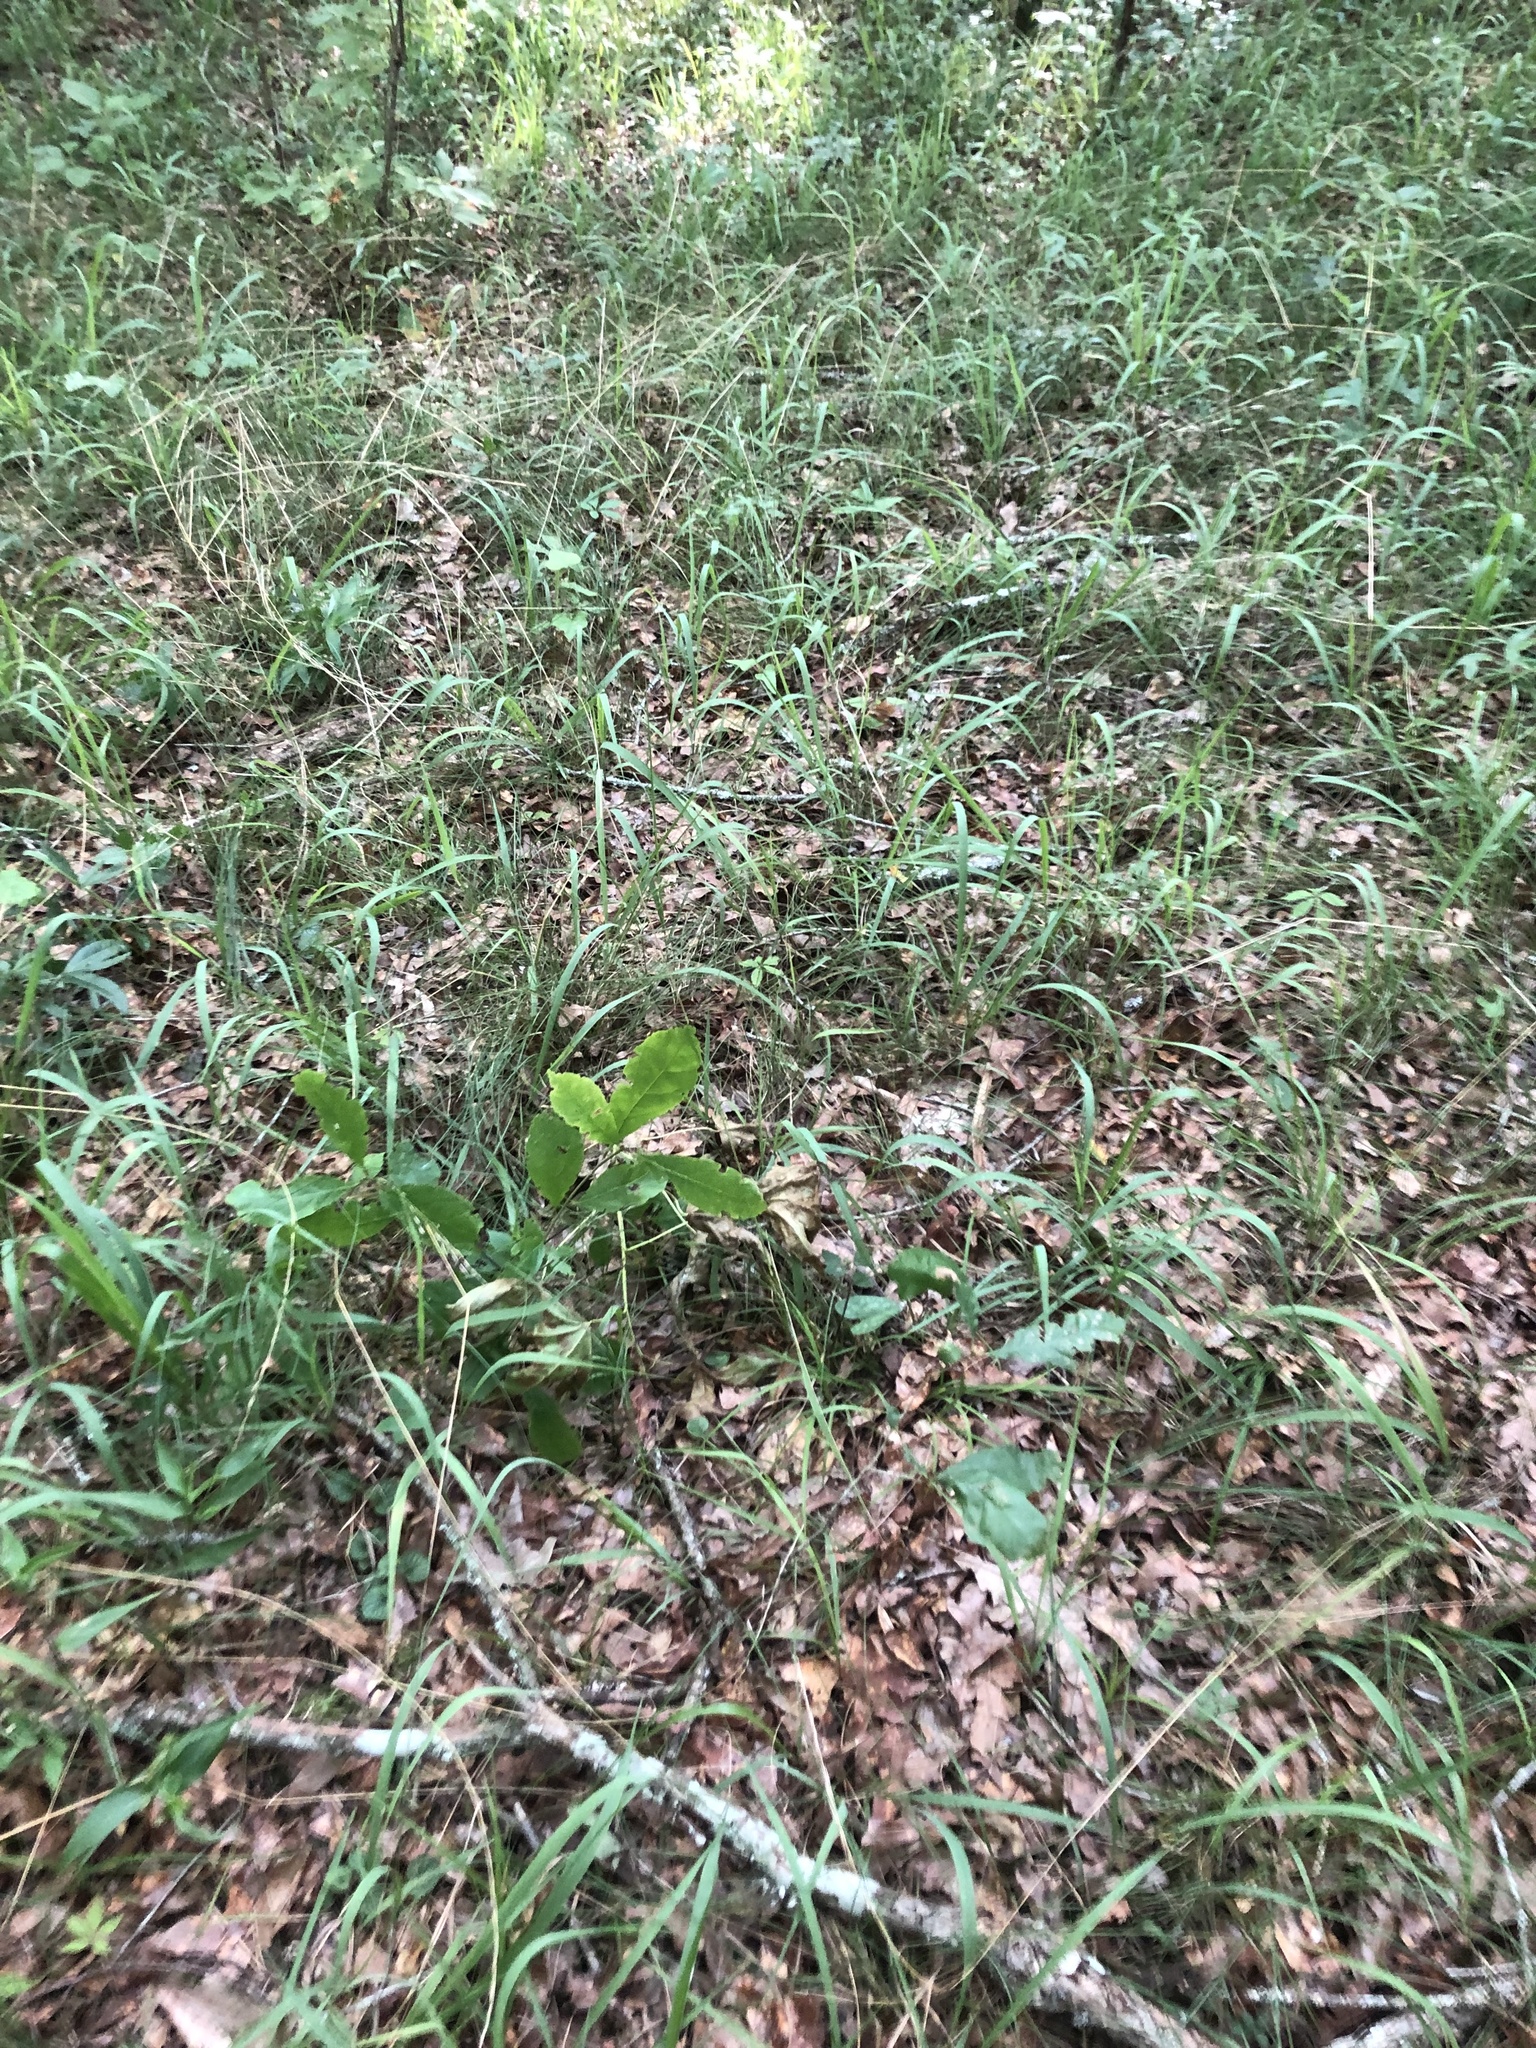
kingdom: Plantae
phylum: Tracheophyta
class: Liliopsida
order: Poales
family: Poaceae
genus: Piptochaetium
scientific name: Piptochaetium avenaceum
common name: Black bunchgrass
